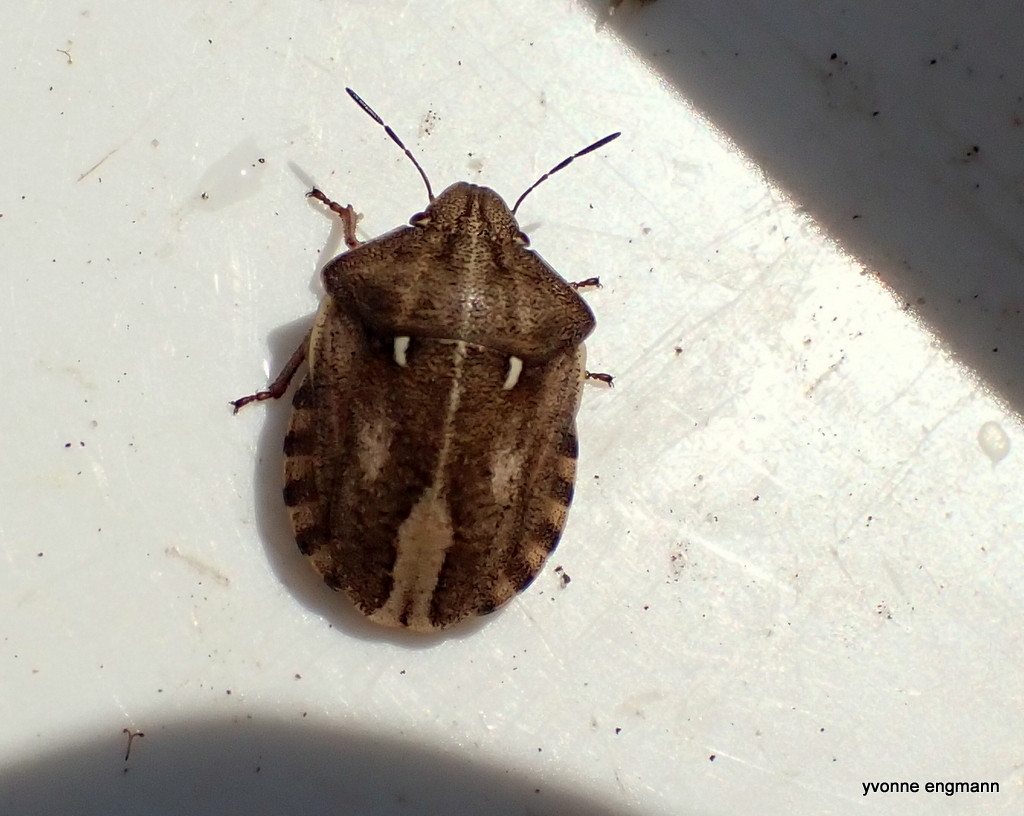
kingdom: Animalia
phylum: Arthropoda
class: Insecta
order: Hemiptera
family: Scutelleridae
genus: Eurygaster
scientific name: Eurygaster testudinaria
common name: Tortoise bug
